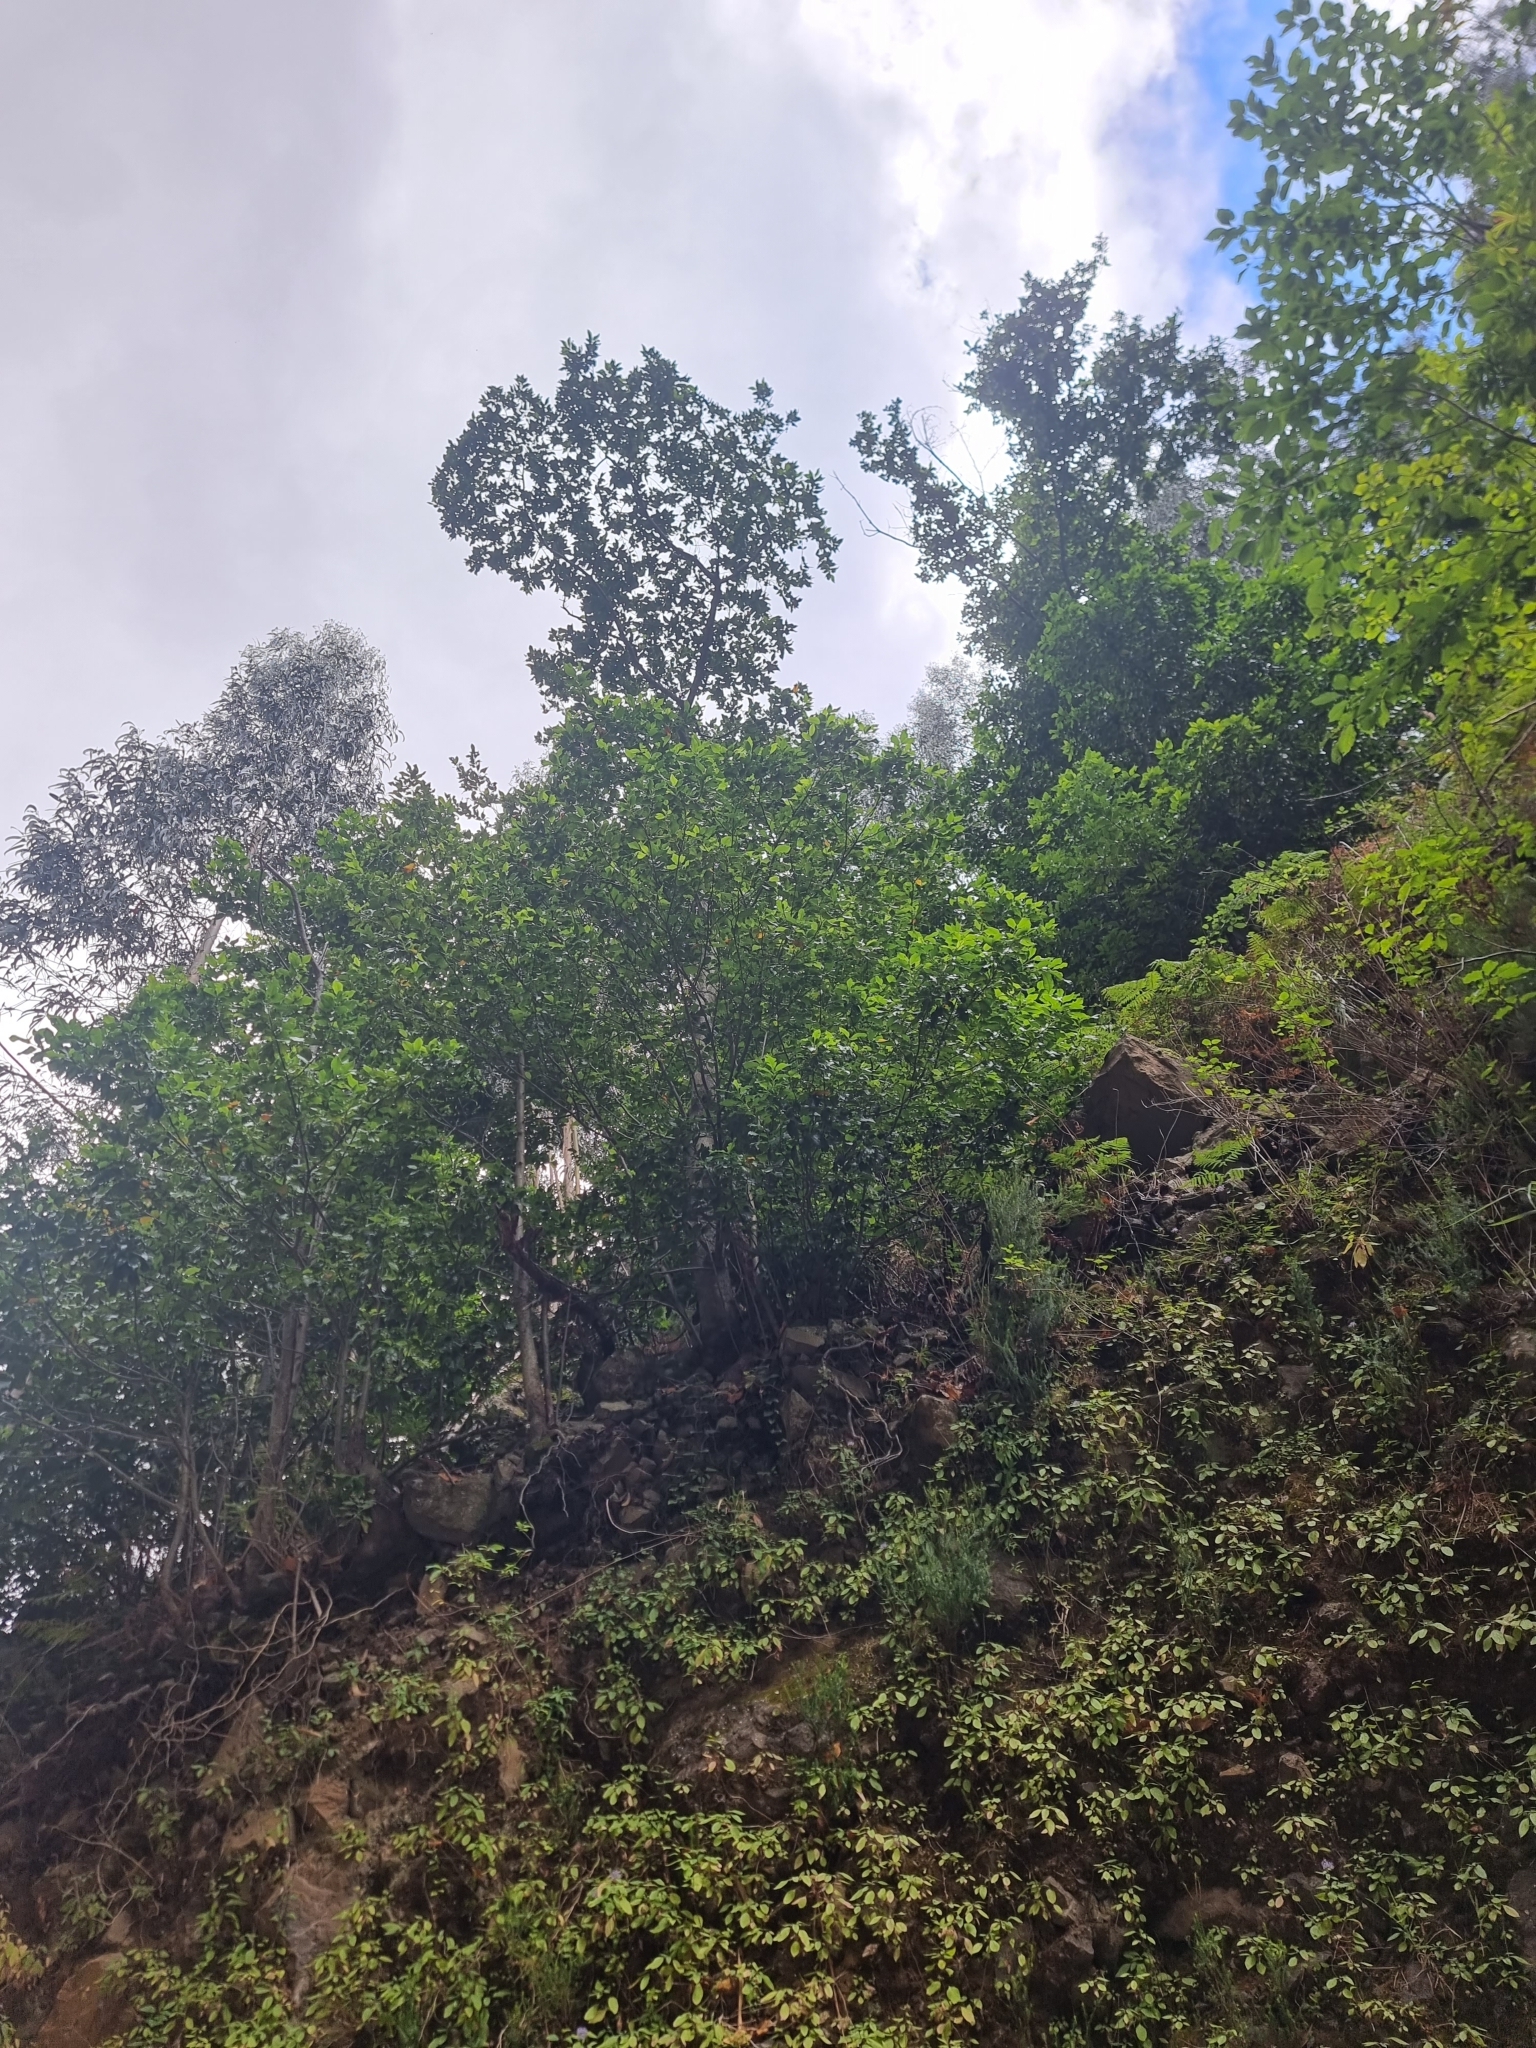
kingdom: Plantae
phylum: Tracheophyta
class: Magnoliopsida
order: Laurales
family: Lauraceae
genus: Mespilodaphne
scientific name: Mespilodaphne foetens
